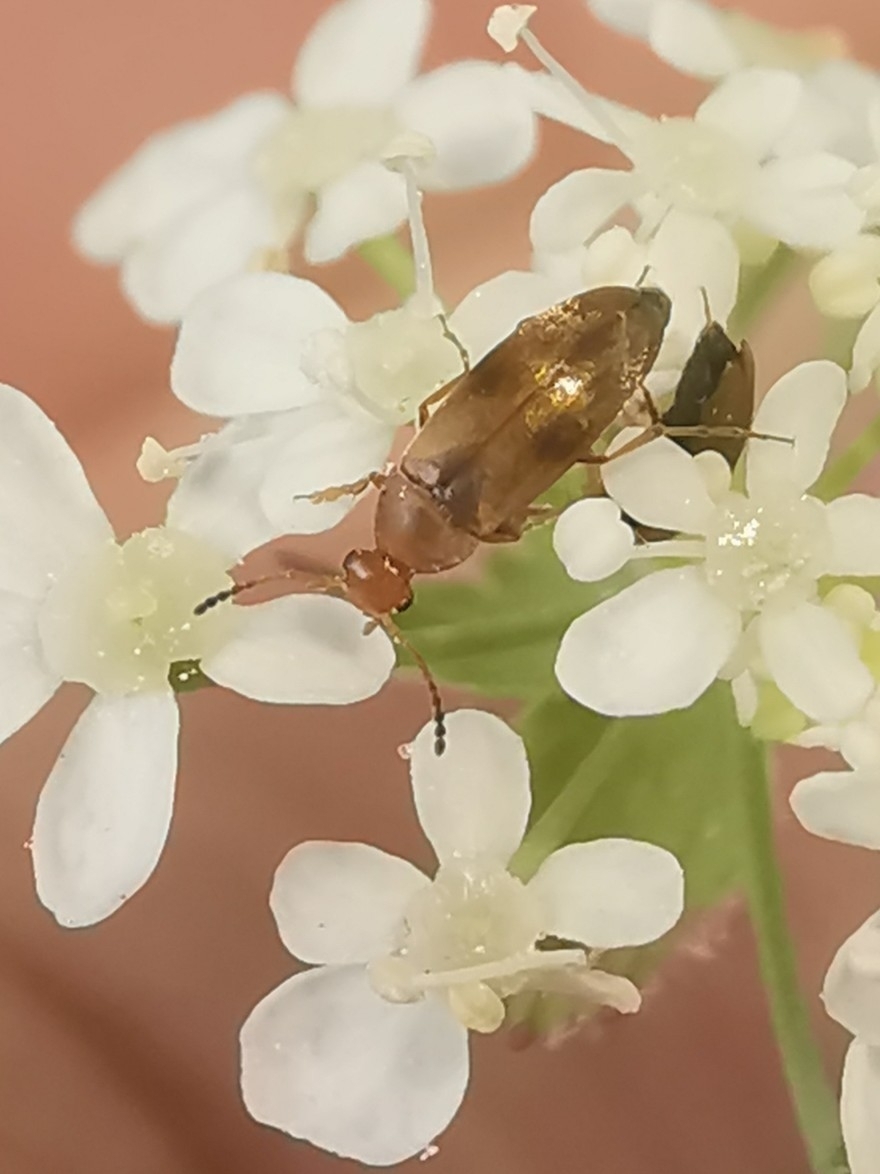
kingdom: Animalia
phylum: Arthropoda
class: Insecta
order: Coleoptera
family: Scraptiidae
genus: Anaspis
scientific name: Anaspis maculata
